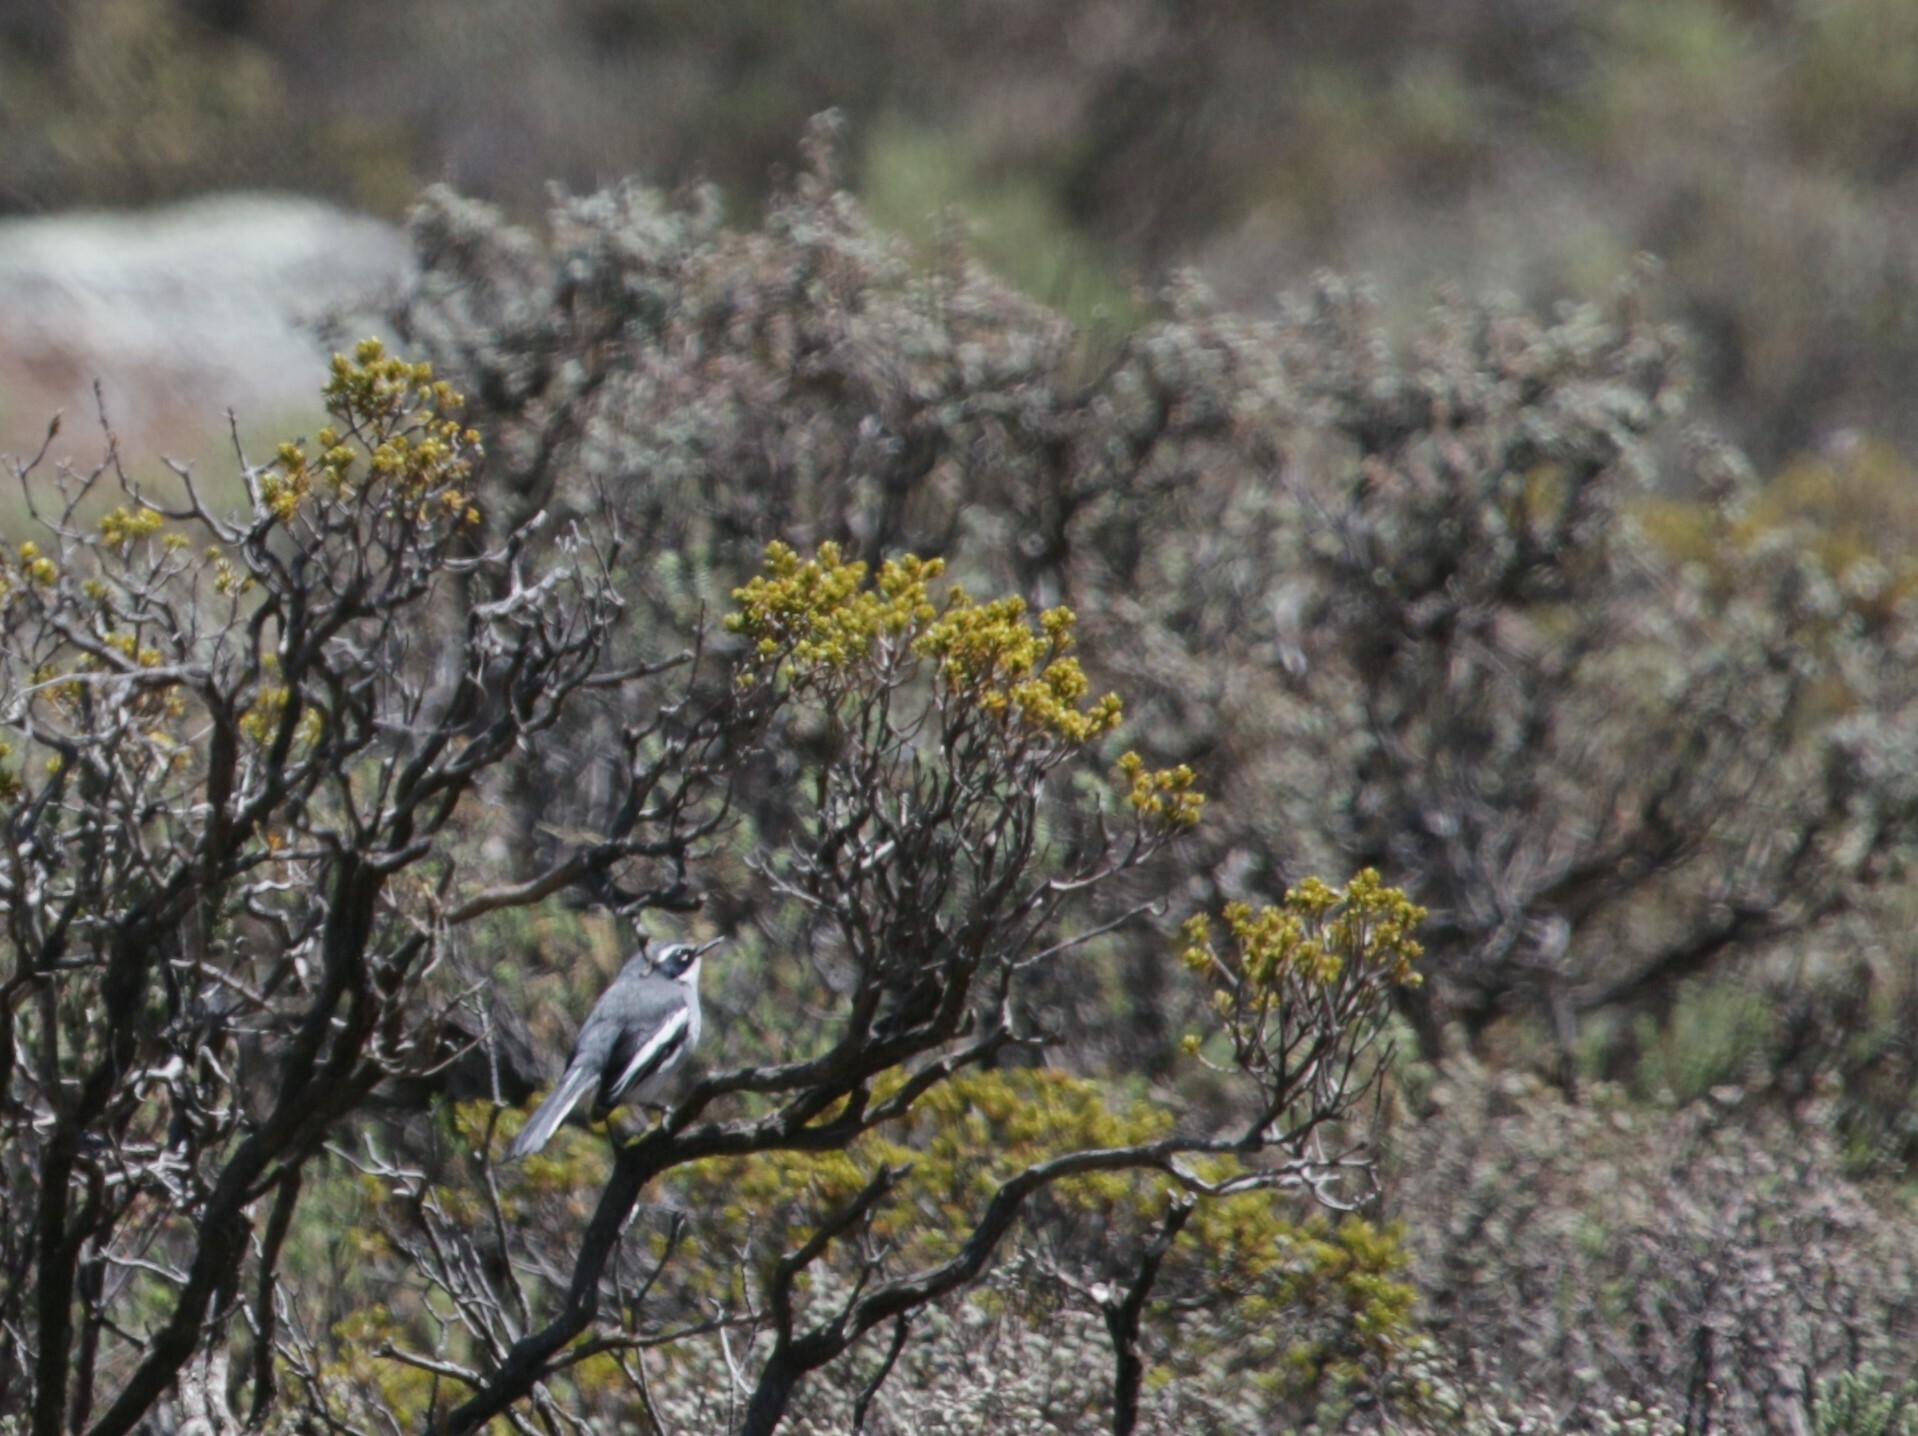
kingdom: Animalia
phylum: Chordata
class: Aves
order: Passeriformes
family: Stenostiridae
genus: Stenostira
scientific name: Stenostira scita
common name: Fairy flycatcher
